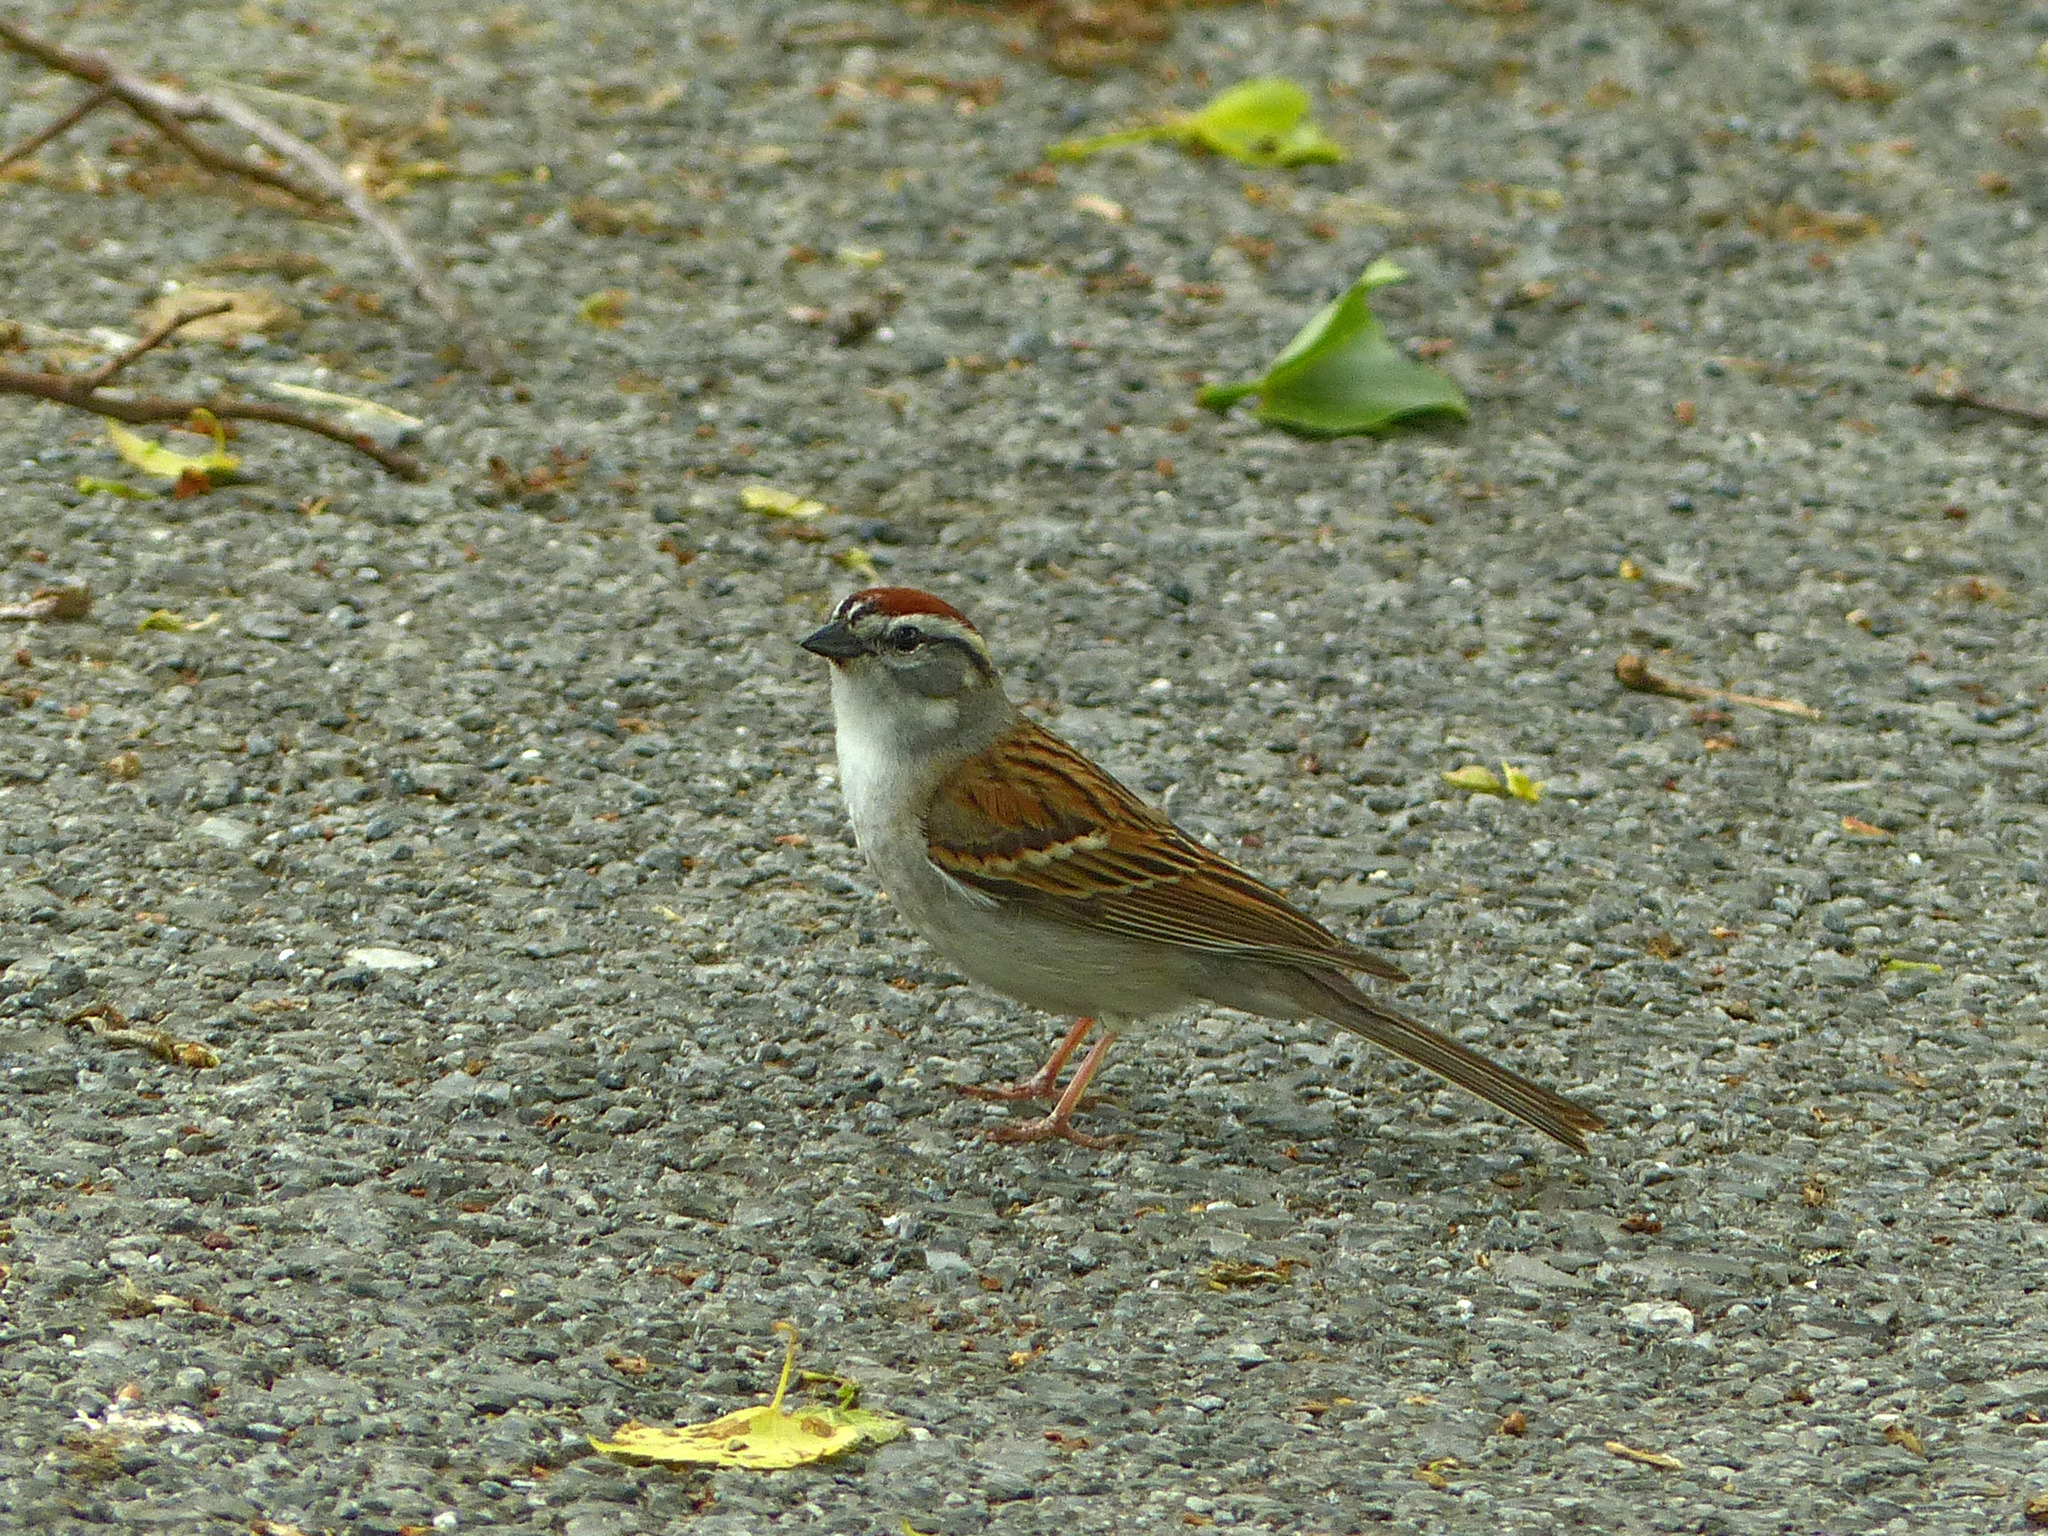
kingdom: Animalia
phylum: Chordata
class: Aves
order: Passeriformes
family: Passerellidae
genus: Spizella
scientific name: Spizella passerina
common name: Chipping sparrow
